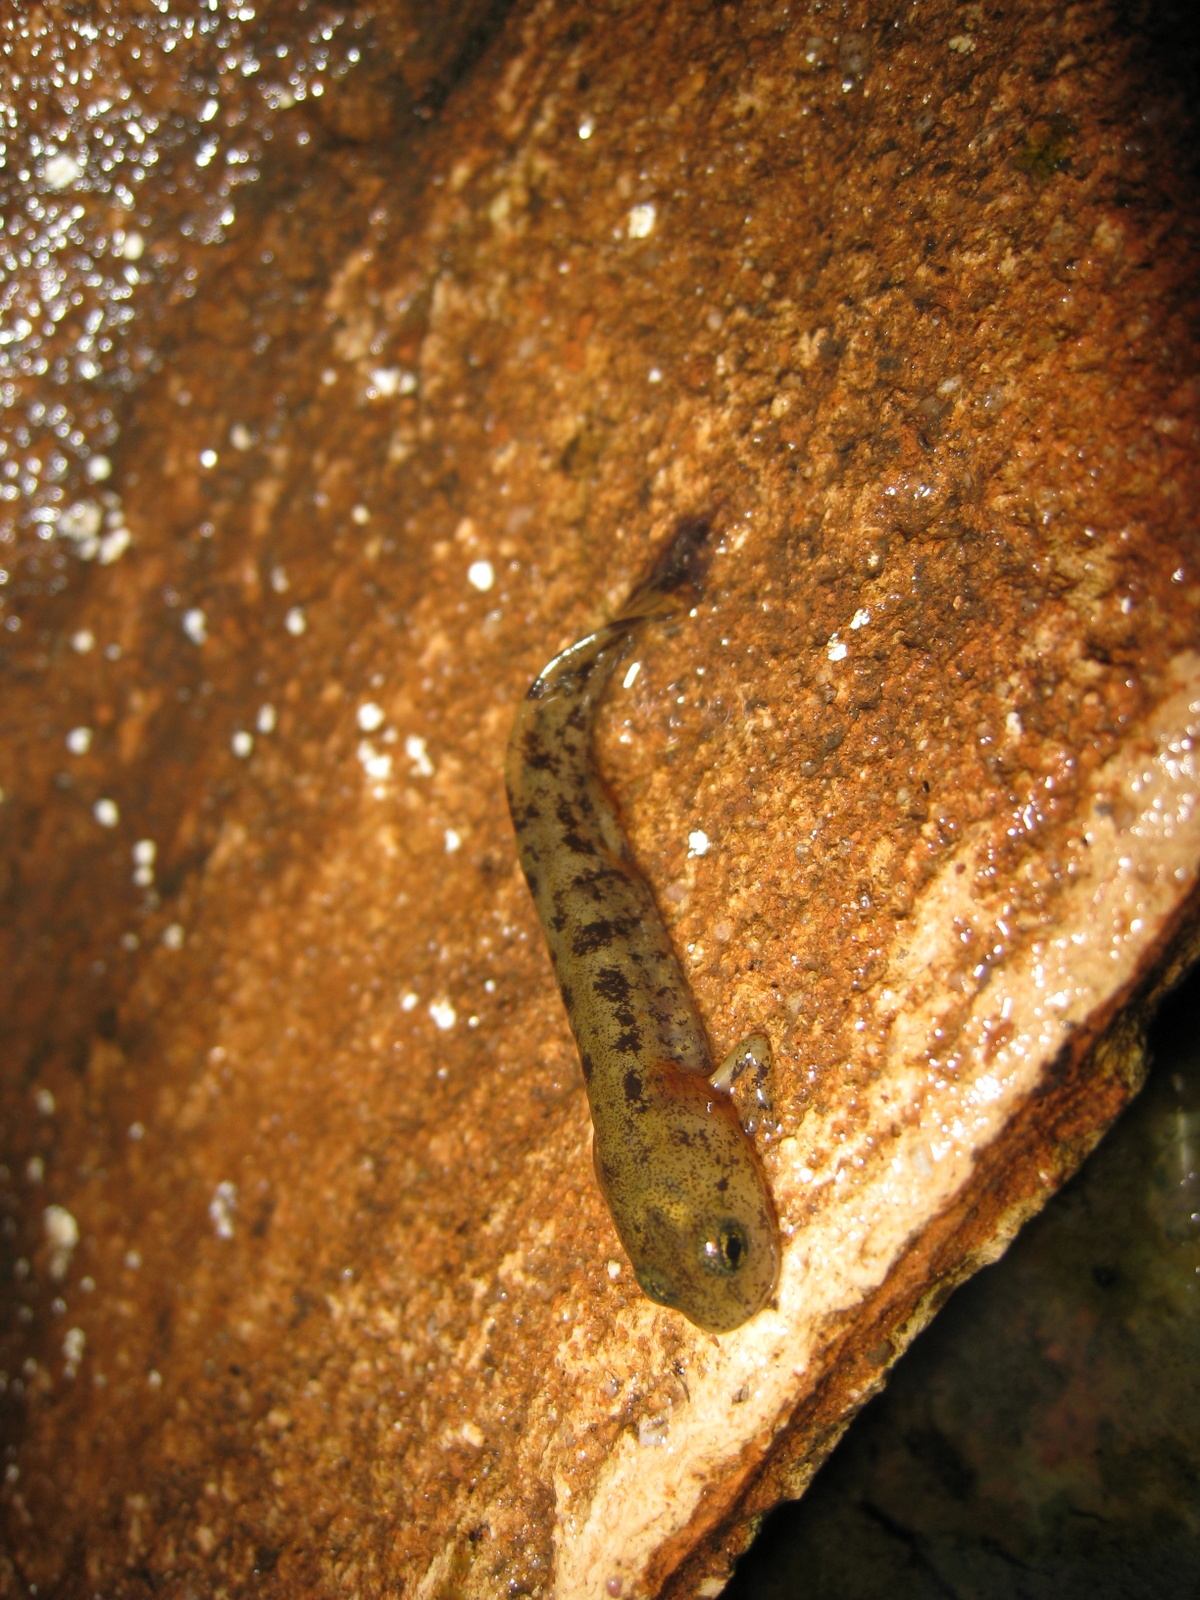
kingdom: Animalia
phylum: Chordata
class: Amphibia
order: Caudata
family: Salamandridae
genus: Triturus
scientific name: Triturus marmoratus
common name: Marbled newt
